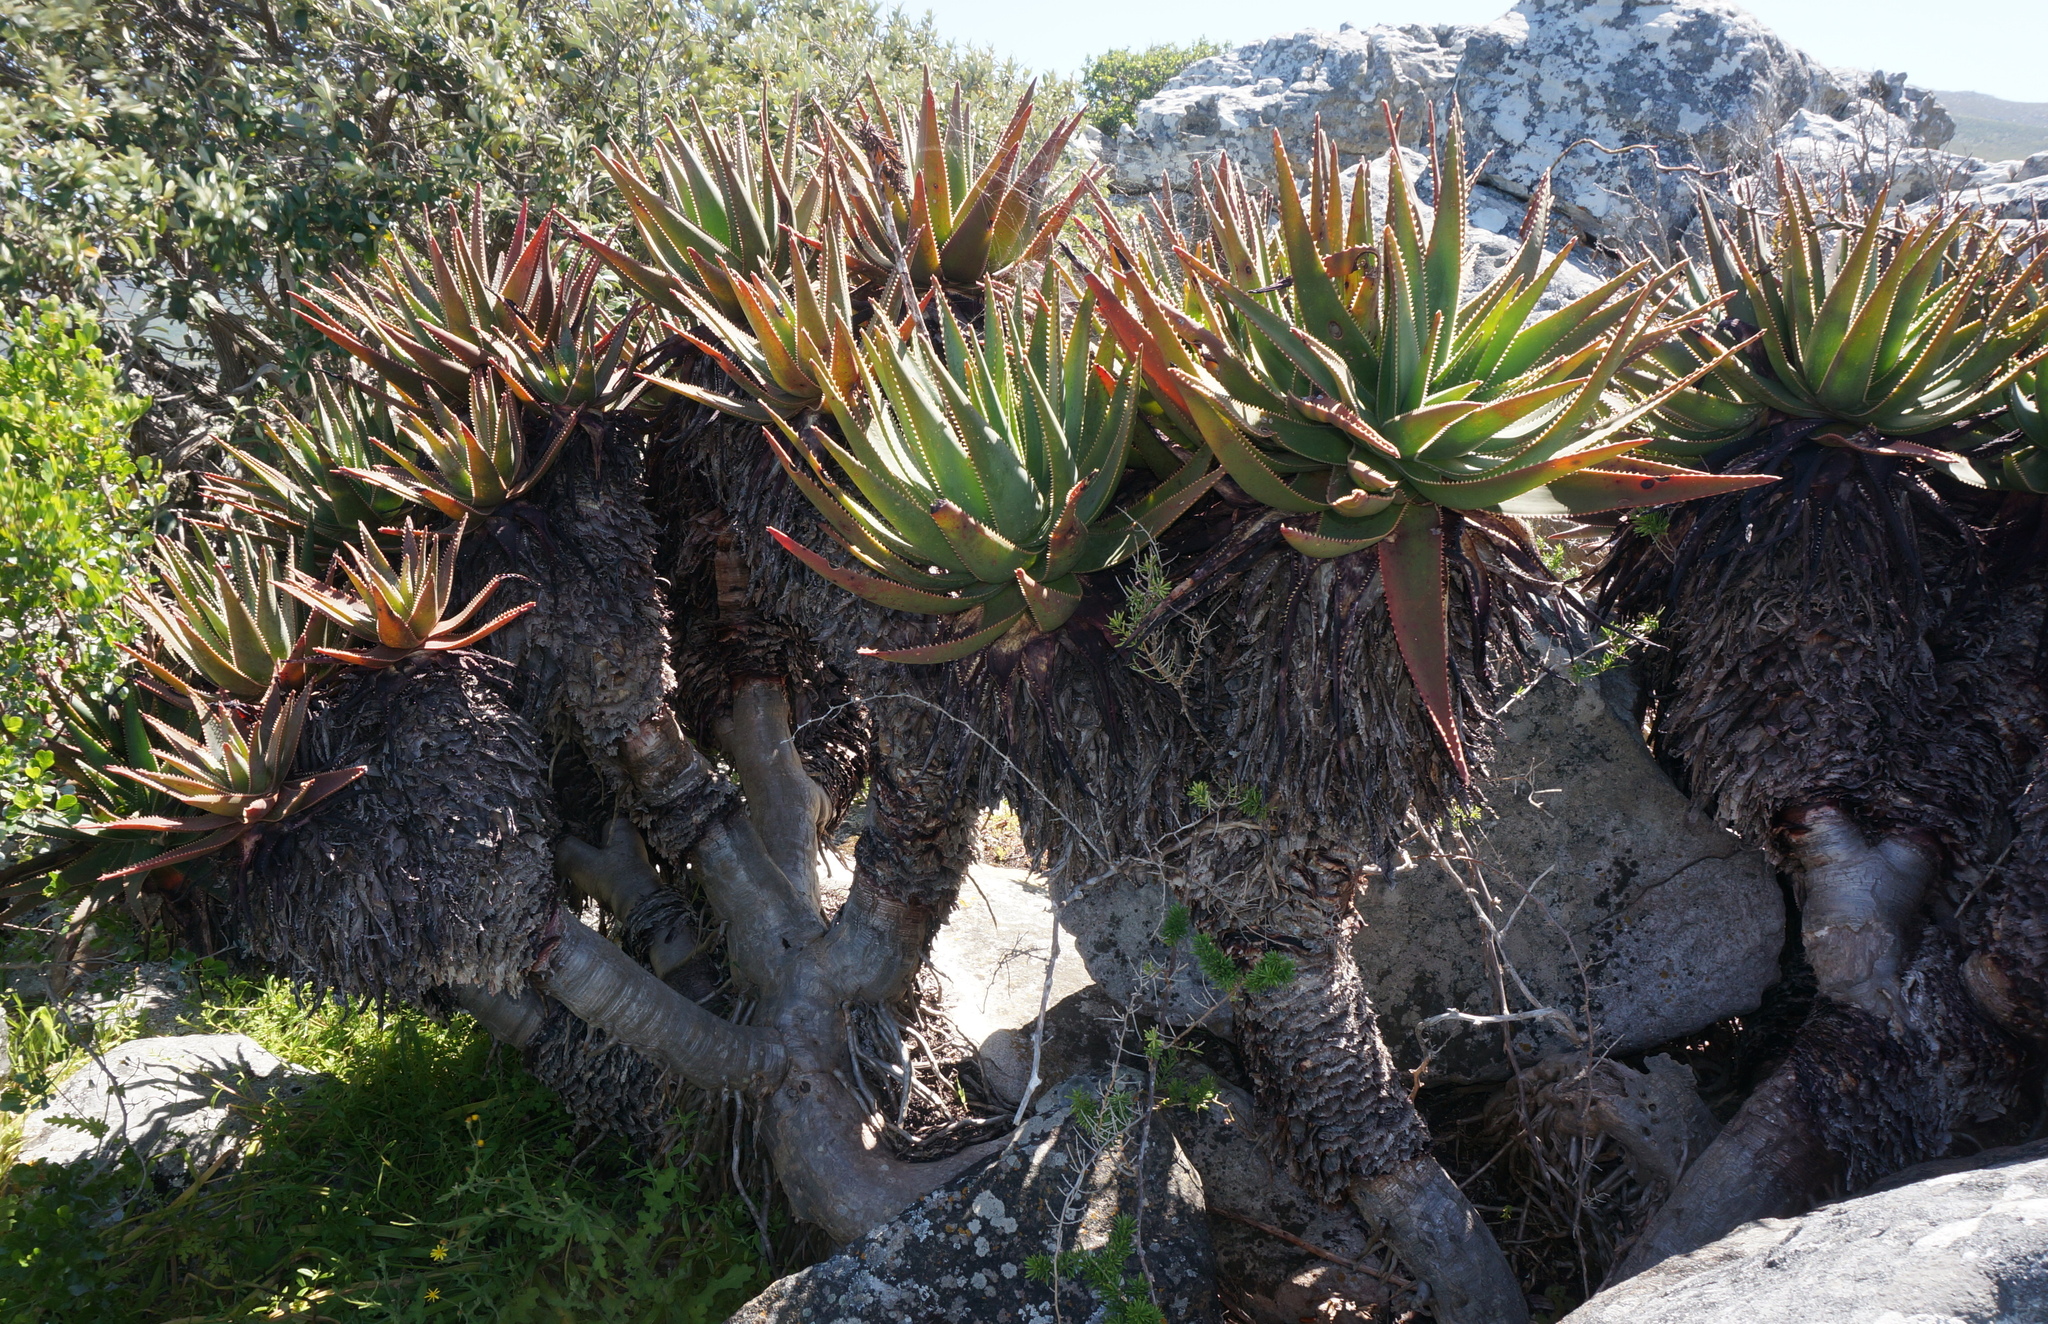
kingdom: Plantae
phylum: Tracheophyta
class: Liliopsida
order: Asparagales
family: Asphodelaceae
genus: Aloe
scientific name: Aloe succotrina
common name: Bombay aloe
